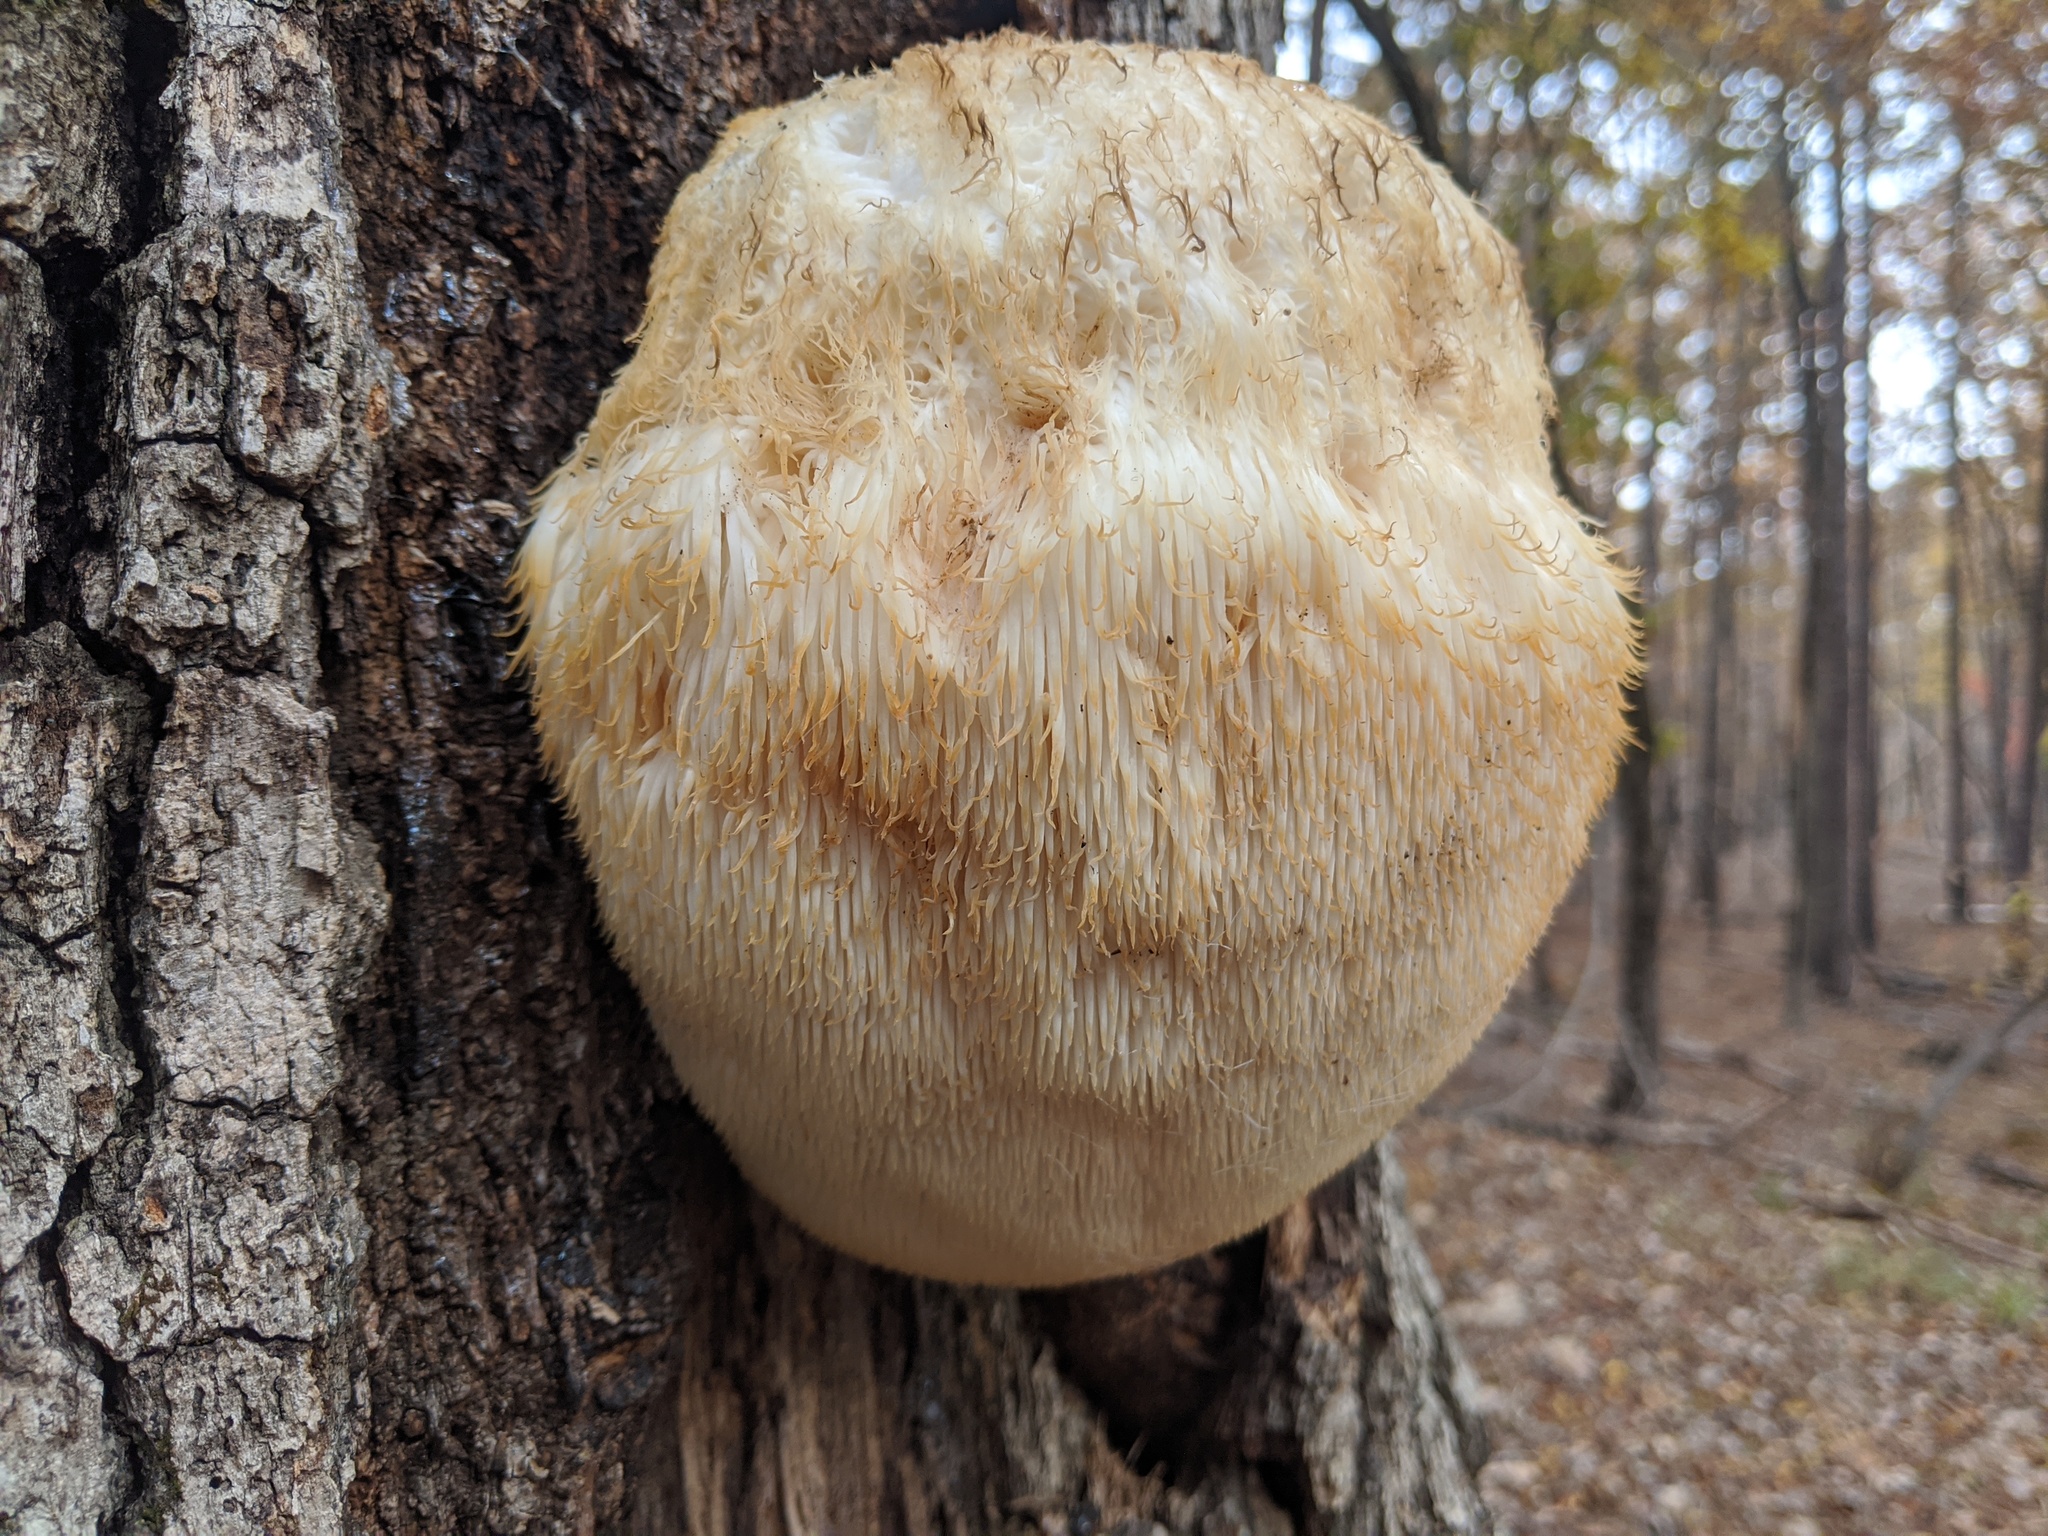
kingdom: Fungi
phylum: Basidiomycota
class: Agaricomycetes
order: Russulales
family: Hericiaceae
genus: Hericium
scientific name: Hericium erinaceus
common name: Bearded tooth
